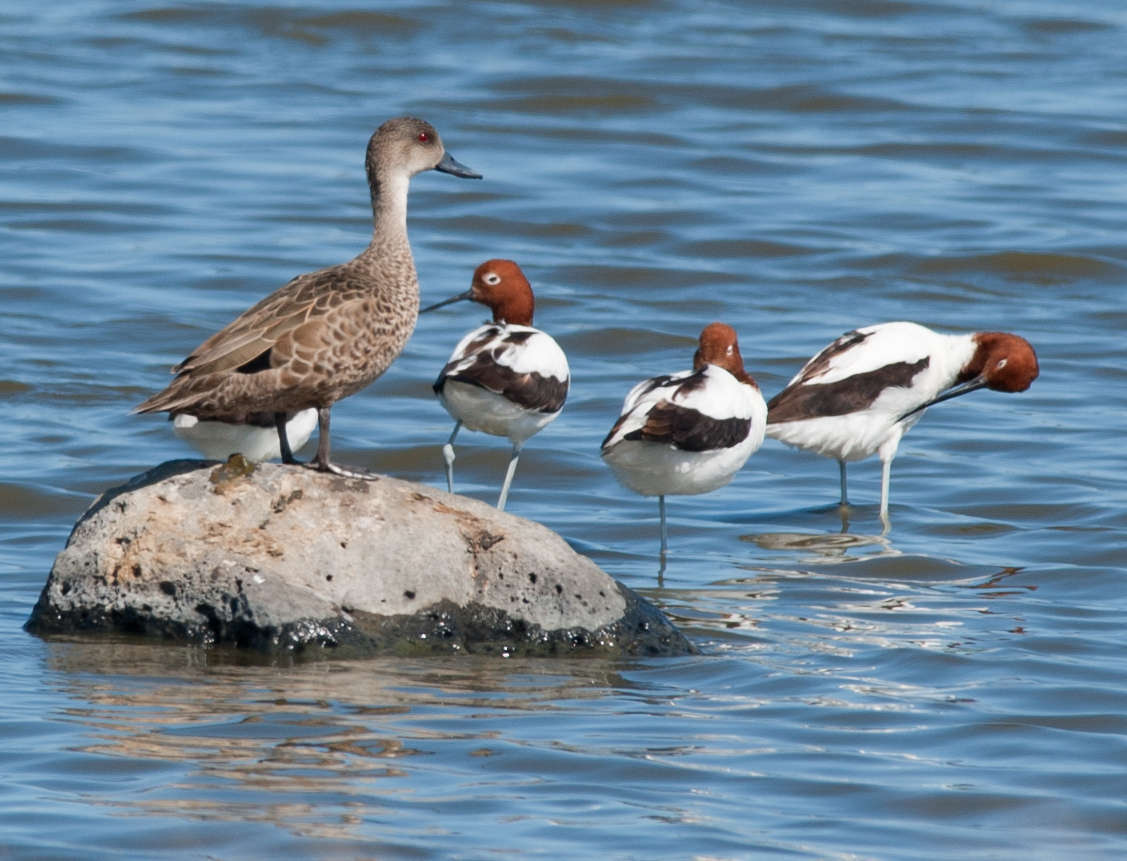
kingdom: Animalia
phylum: Chordata
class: Aves
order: Anseriformes
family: Anatidae
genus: Anas
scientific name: Anas gracilis
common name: Grey teal
